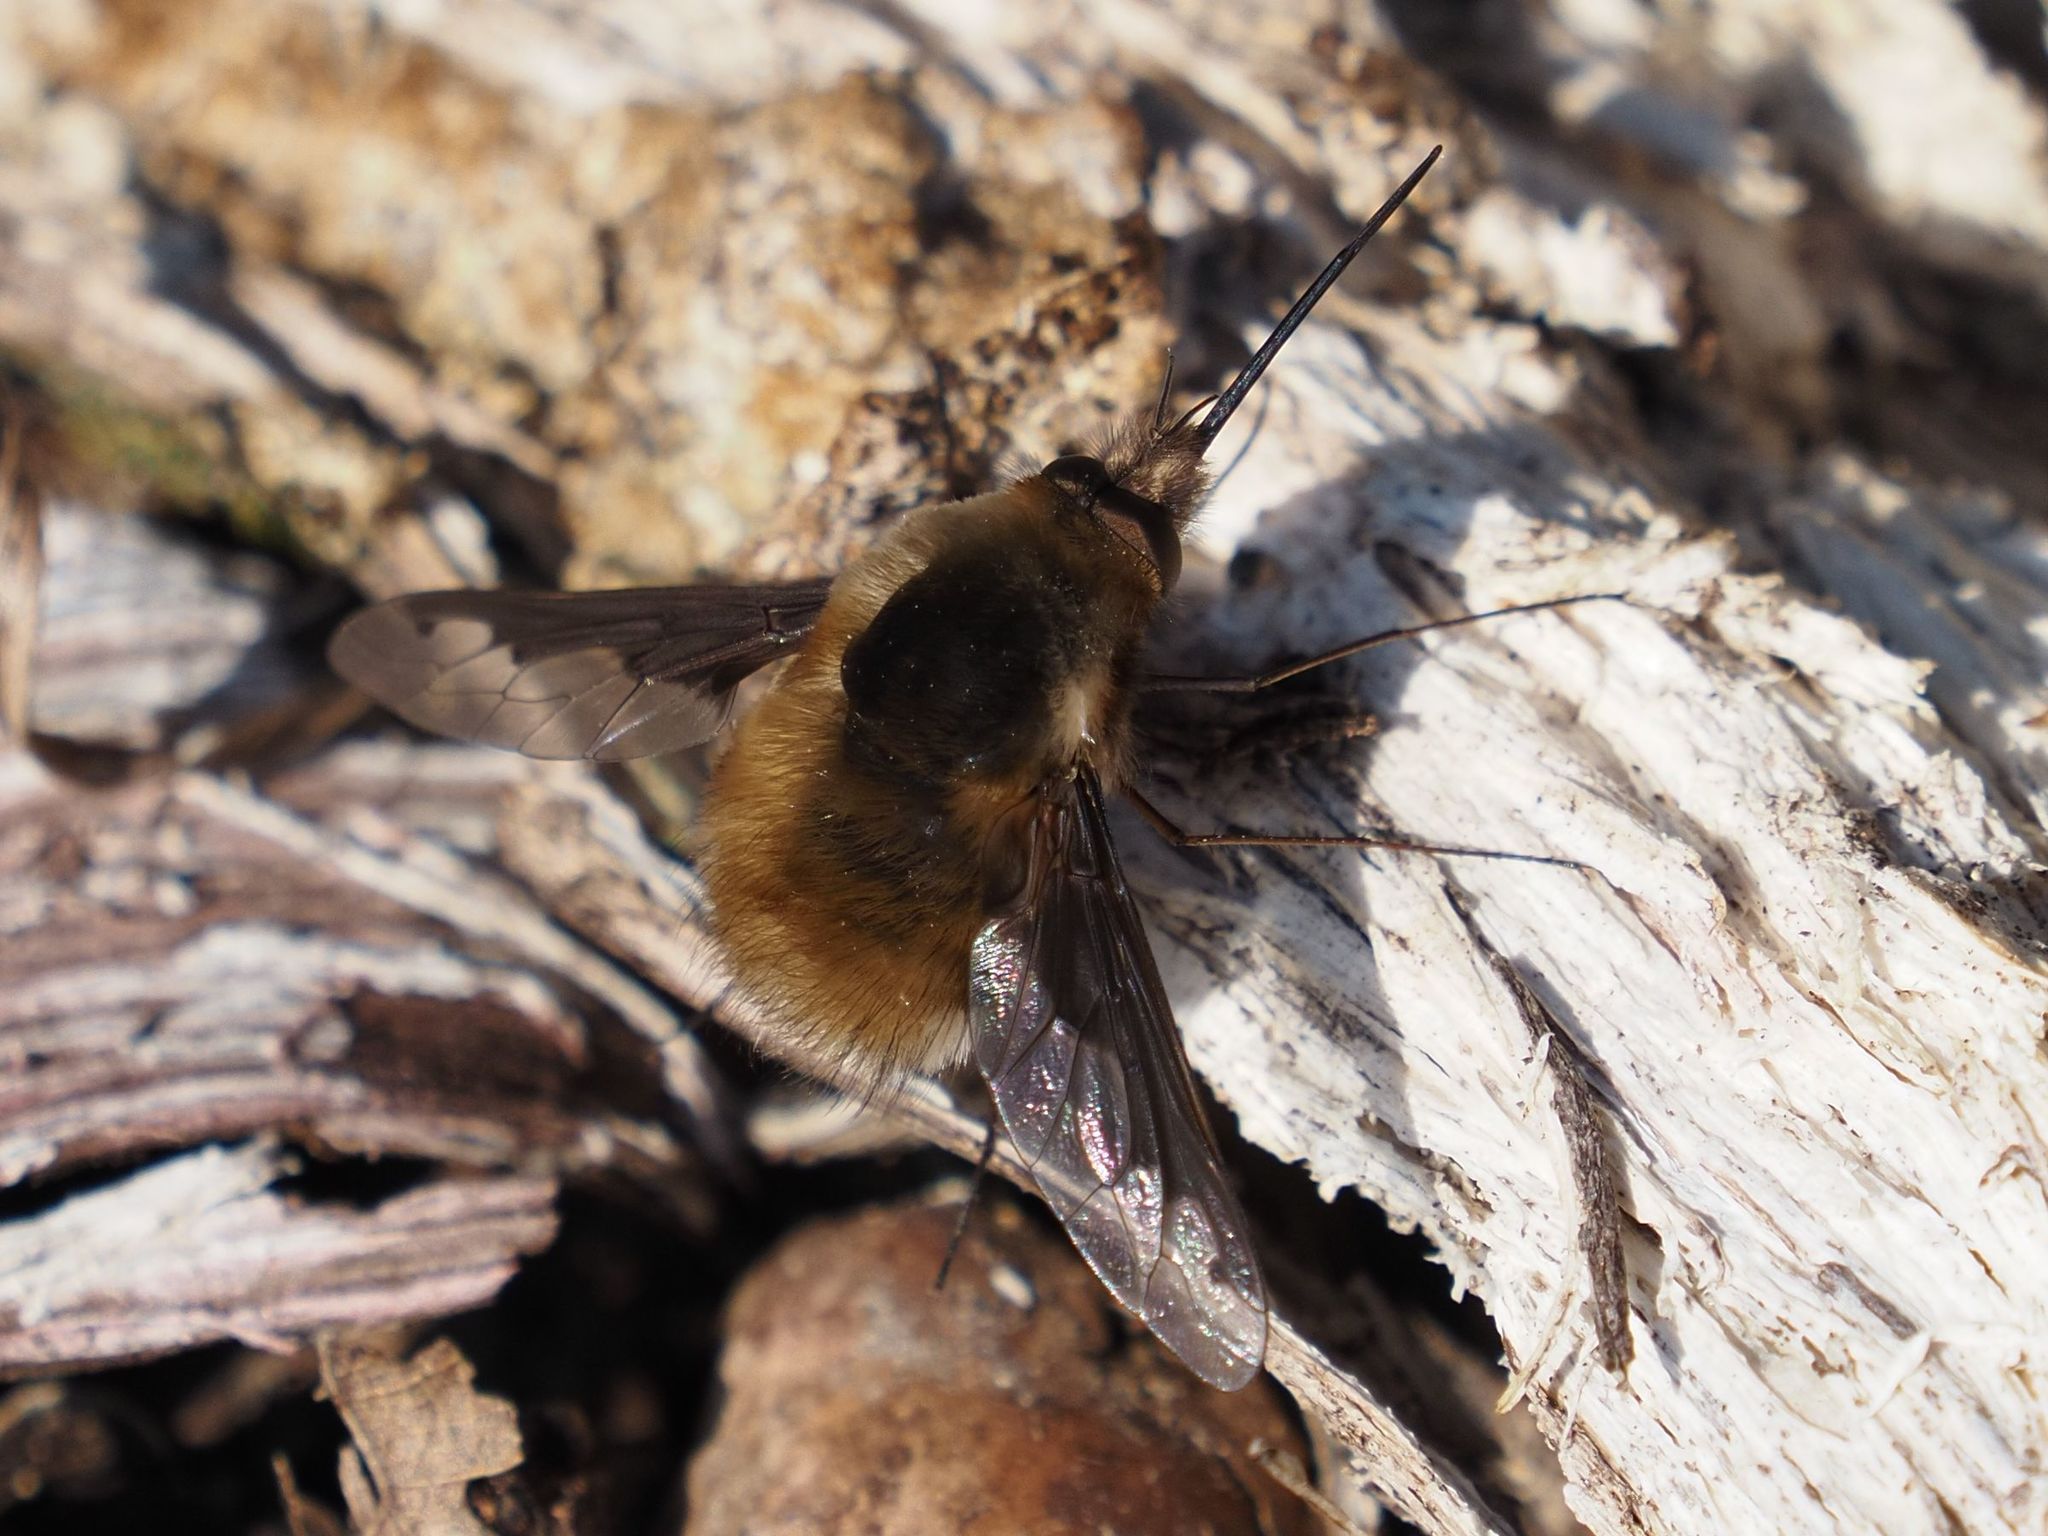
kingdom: Animalia
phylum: Arthropoda
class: Insecta
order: Diptera
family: Bombyliidae
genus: Bombylius
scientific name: Bombylius major
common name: Bee fly
